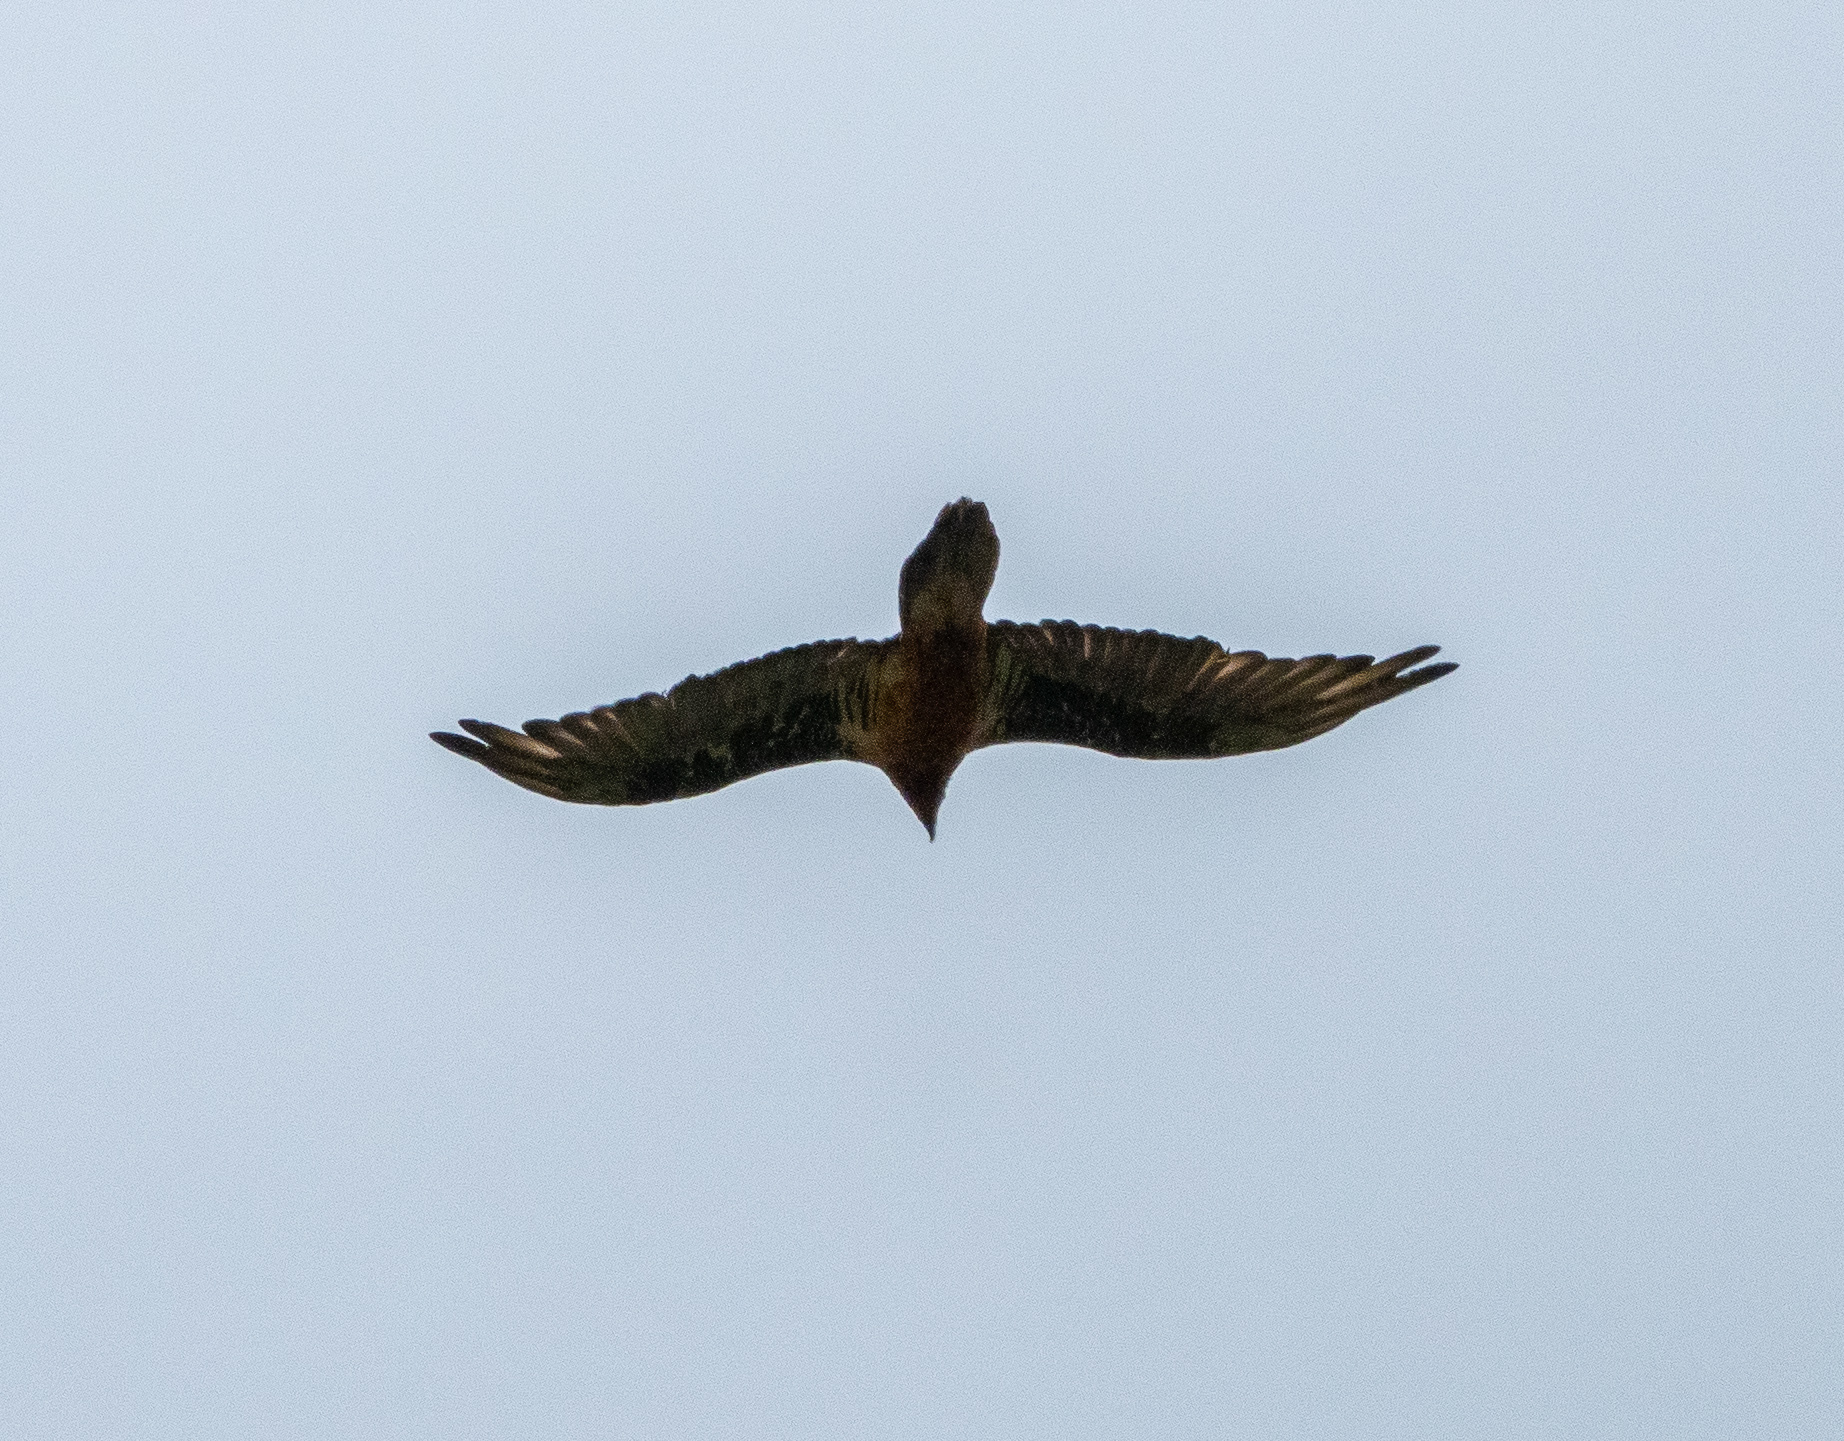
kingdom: Animalia
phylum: Chordata
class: Aves
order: Accipitriformes
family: Accipitridae
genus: Gypaetus
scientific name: Gypaetus barbatus
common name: Bearded vulture
